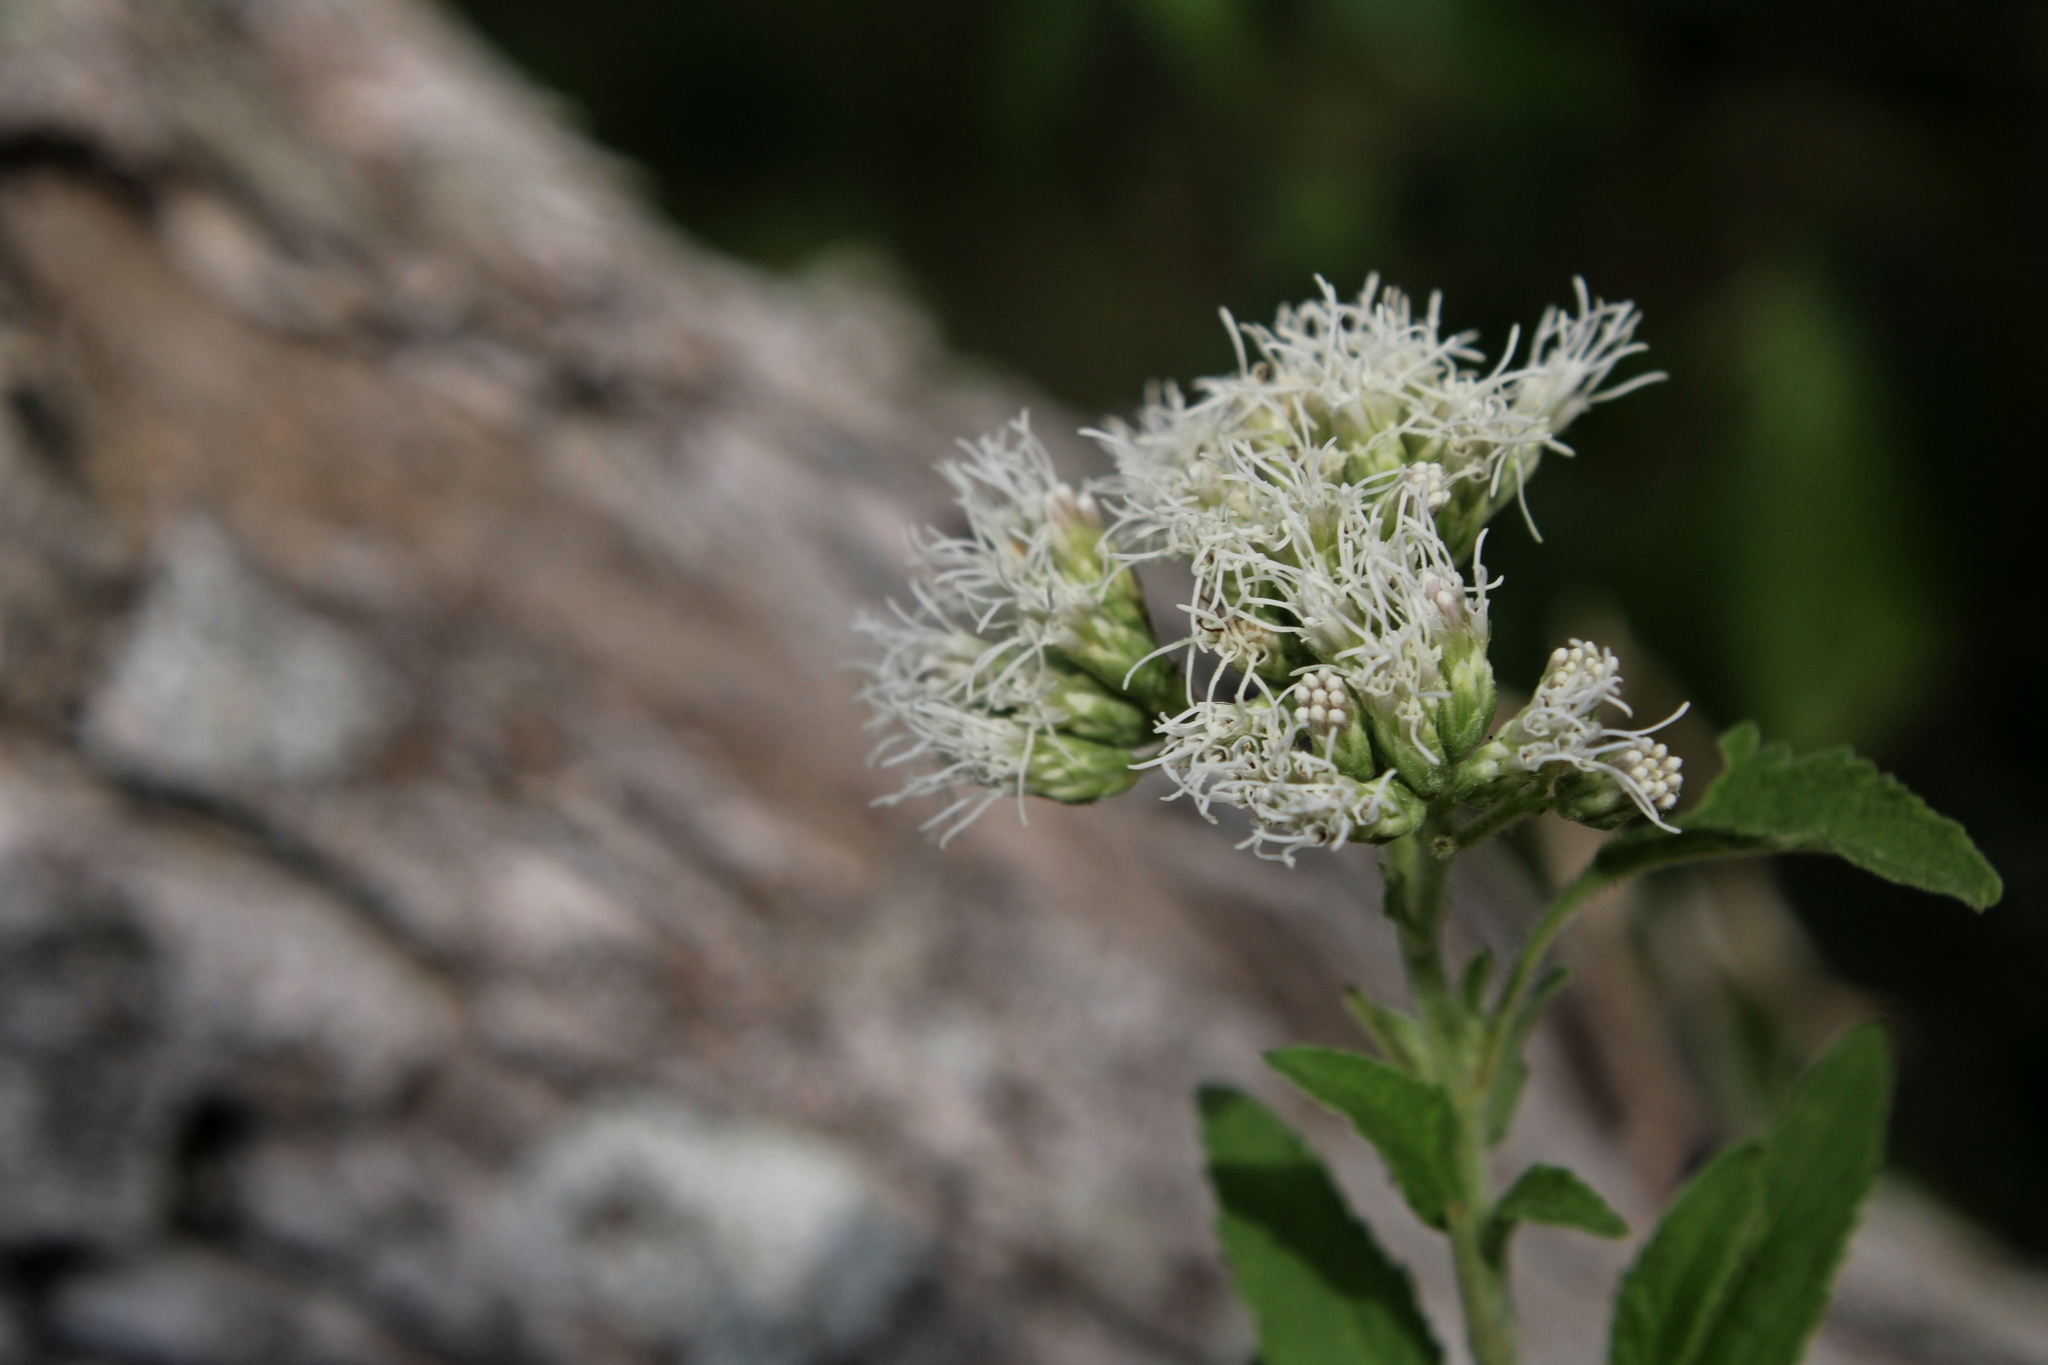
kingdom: Plantae
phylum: Tracheophyta
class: Magnoliopsida
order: Asterales
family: Asteraceae
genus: Austroeupatorium
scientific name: Austroeupatorium inulifolium
